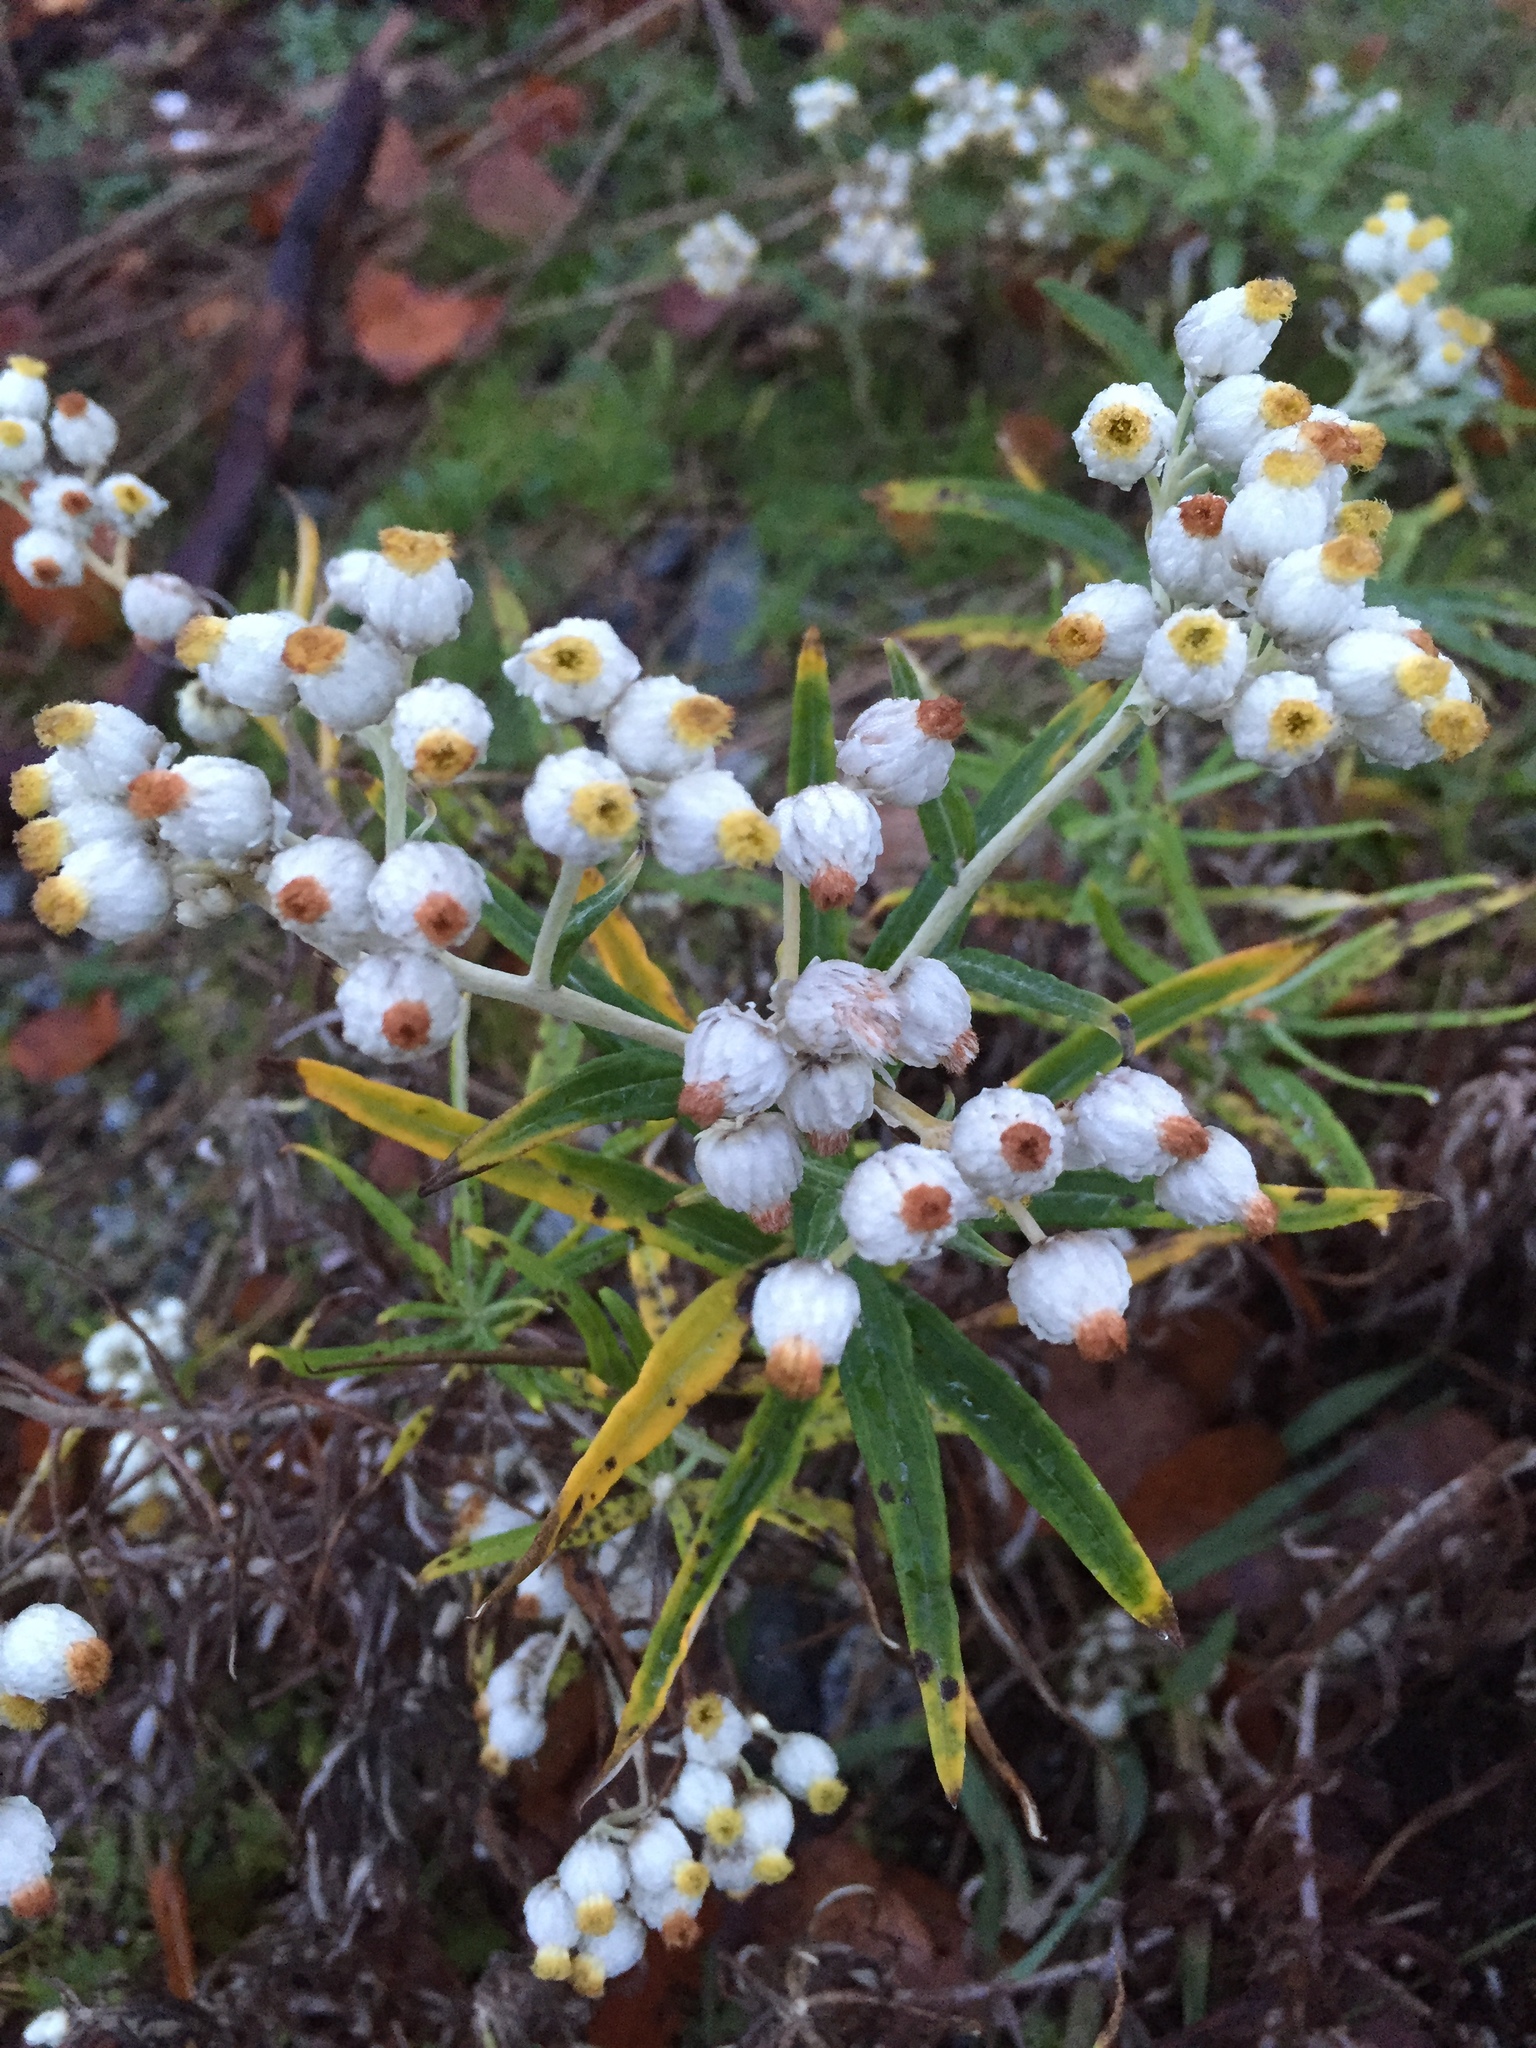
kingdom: Plantae
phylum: Tracheophyta
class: Magnoliopsida
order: Asterales
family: Asteraceae
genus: Anaphalis
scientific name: Anaphalis margaritacea
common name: Pearly everlasting
